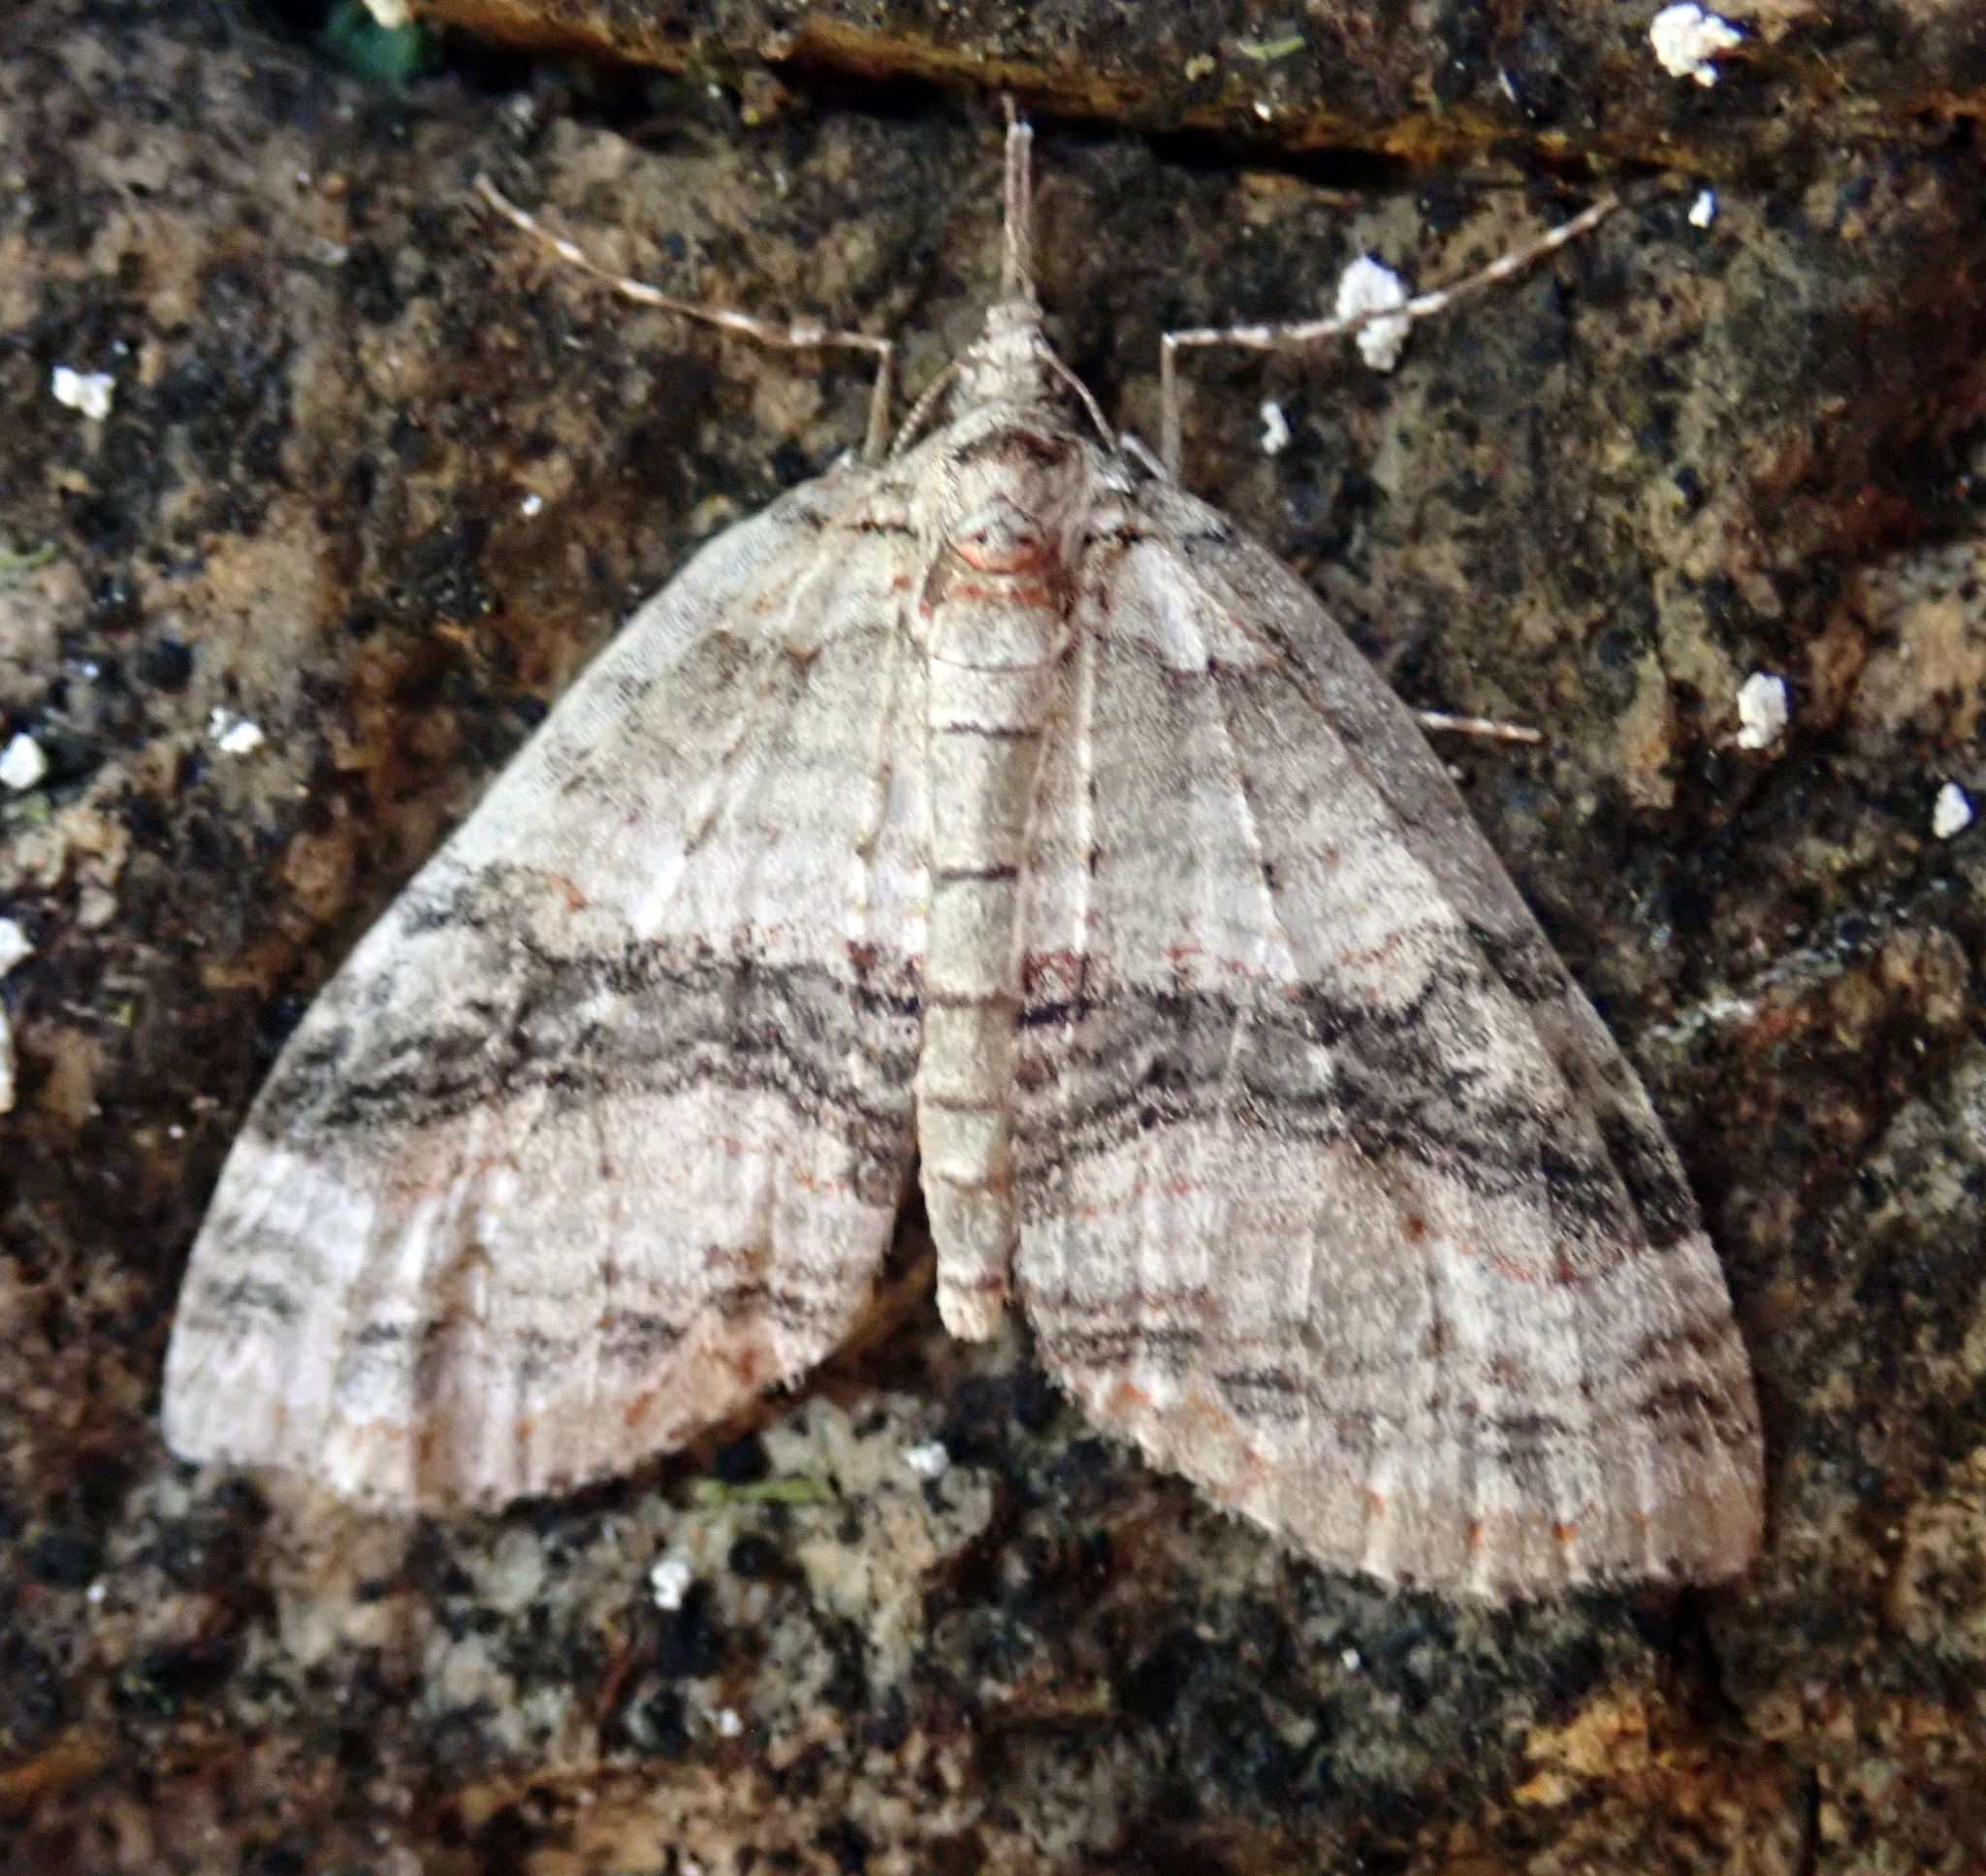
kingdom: Animalia
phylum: Arthropoda
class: Insecta
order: Lepidoptera
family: Geometridae
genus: Tatosoma
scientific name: Tatosoma fasciata
